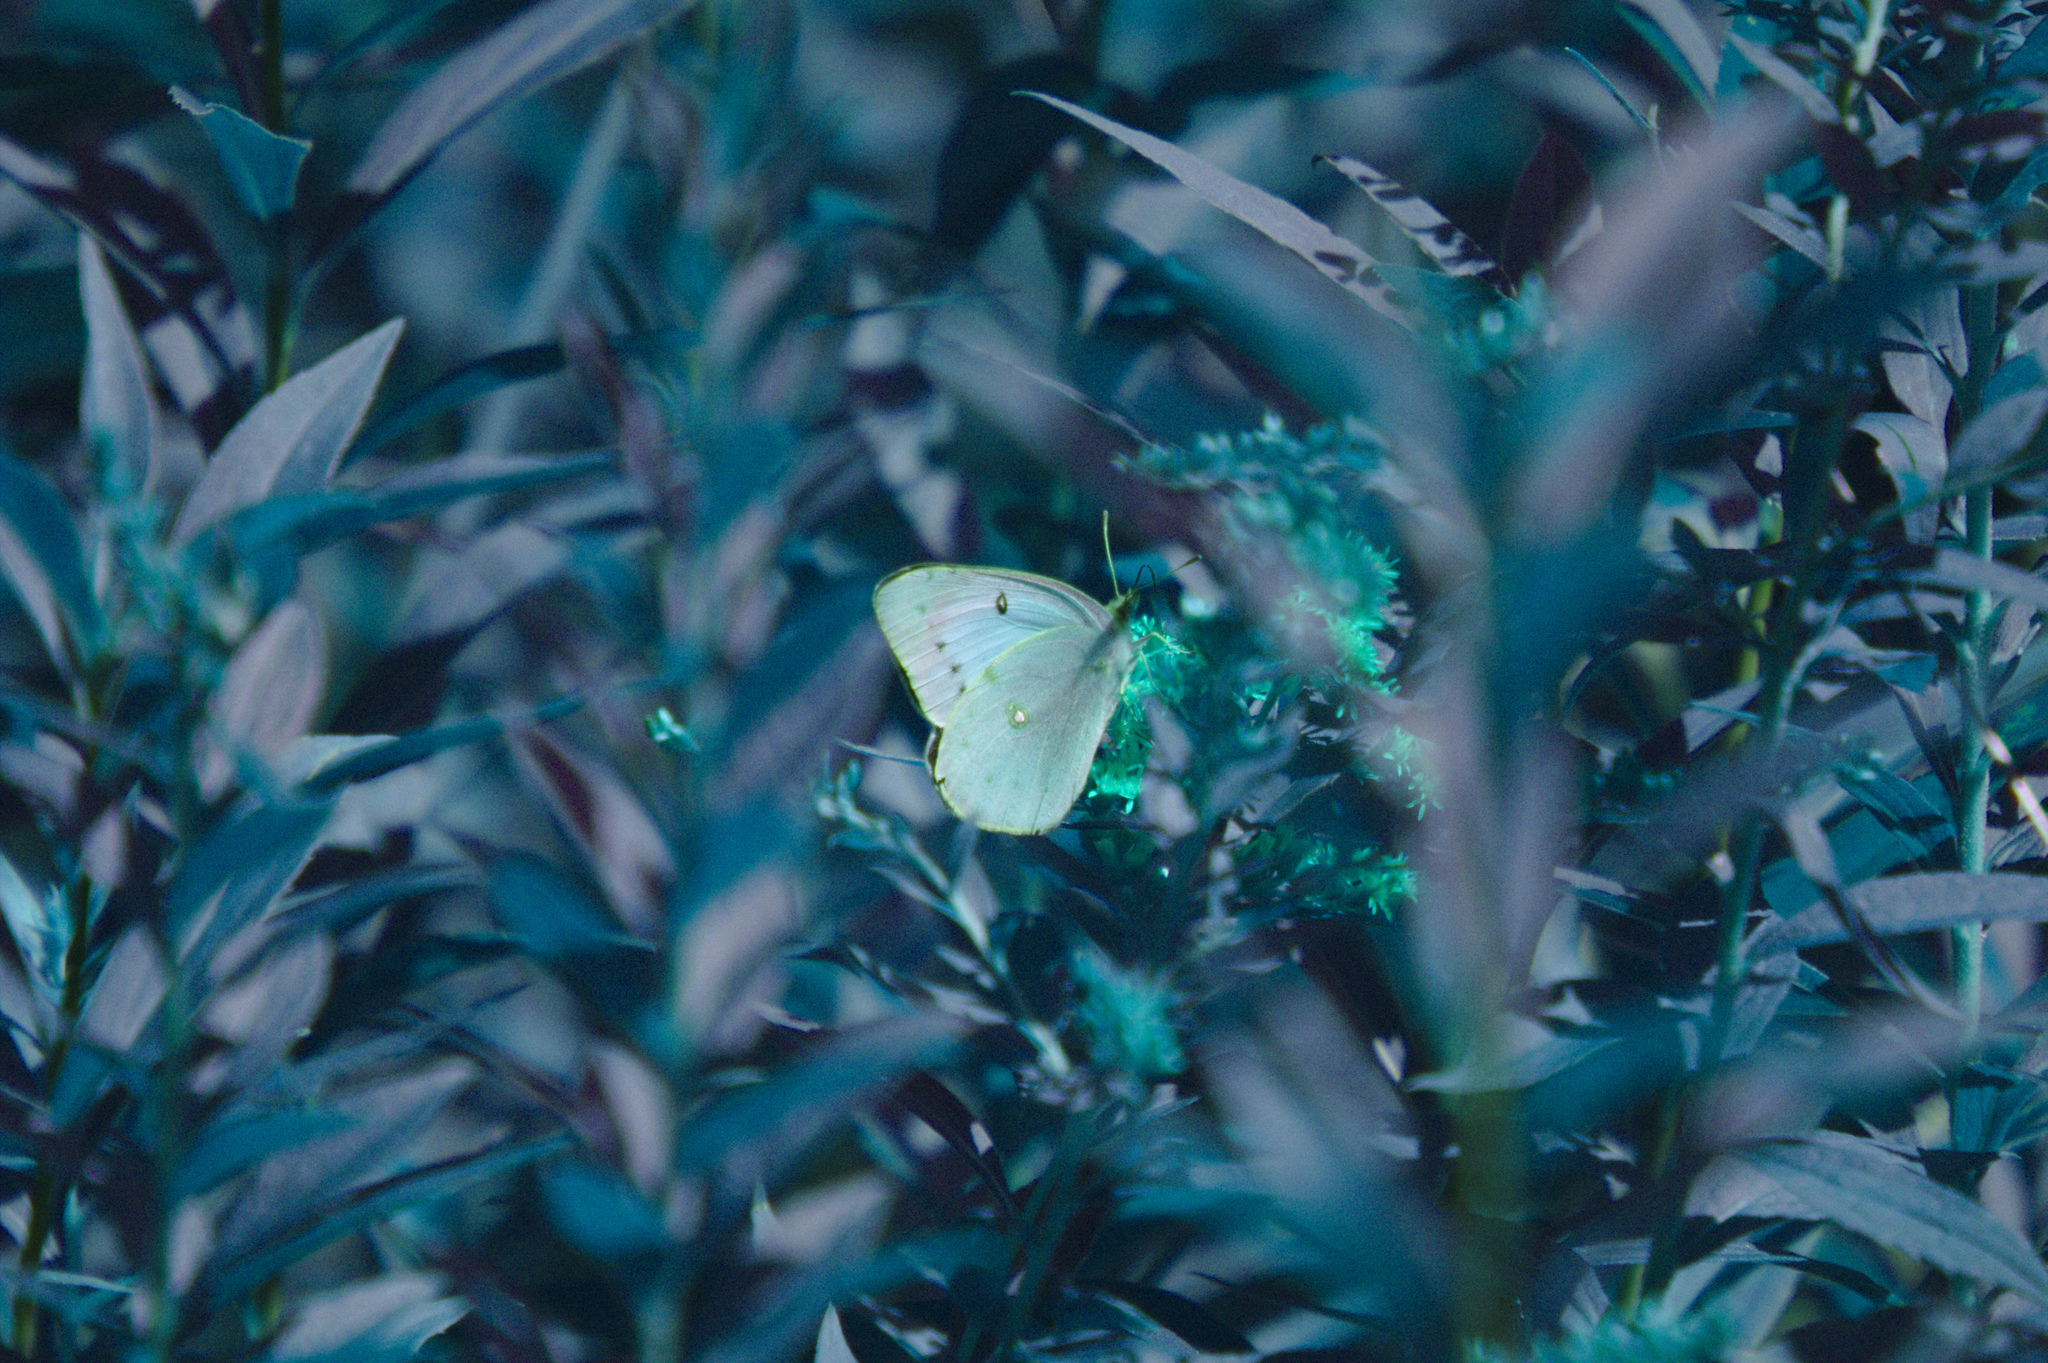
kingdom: Animalia
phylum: Arthropoda
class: Insecta
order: Lepidoptera
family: Pieridae
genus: Colias
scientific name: Colias philodice
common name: Clouded sulphur
